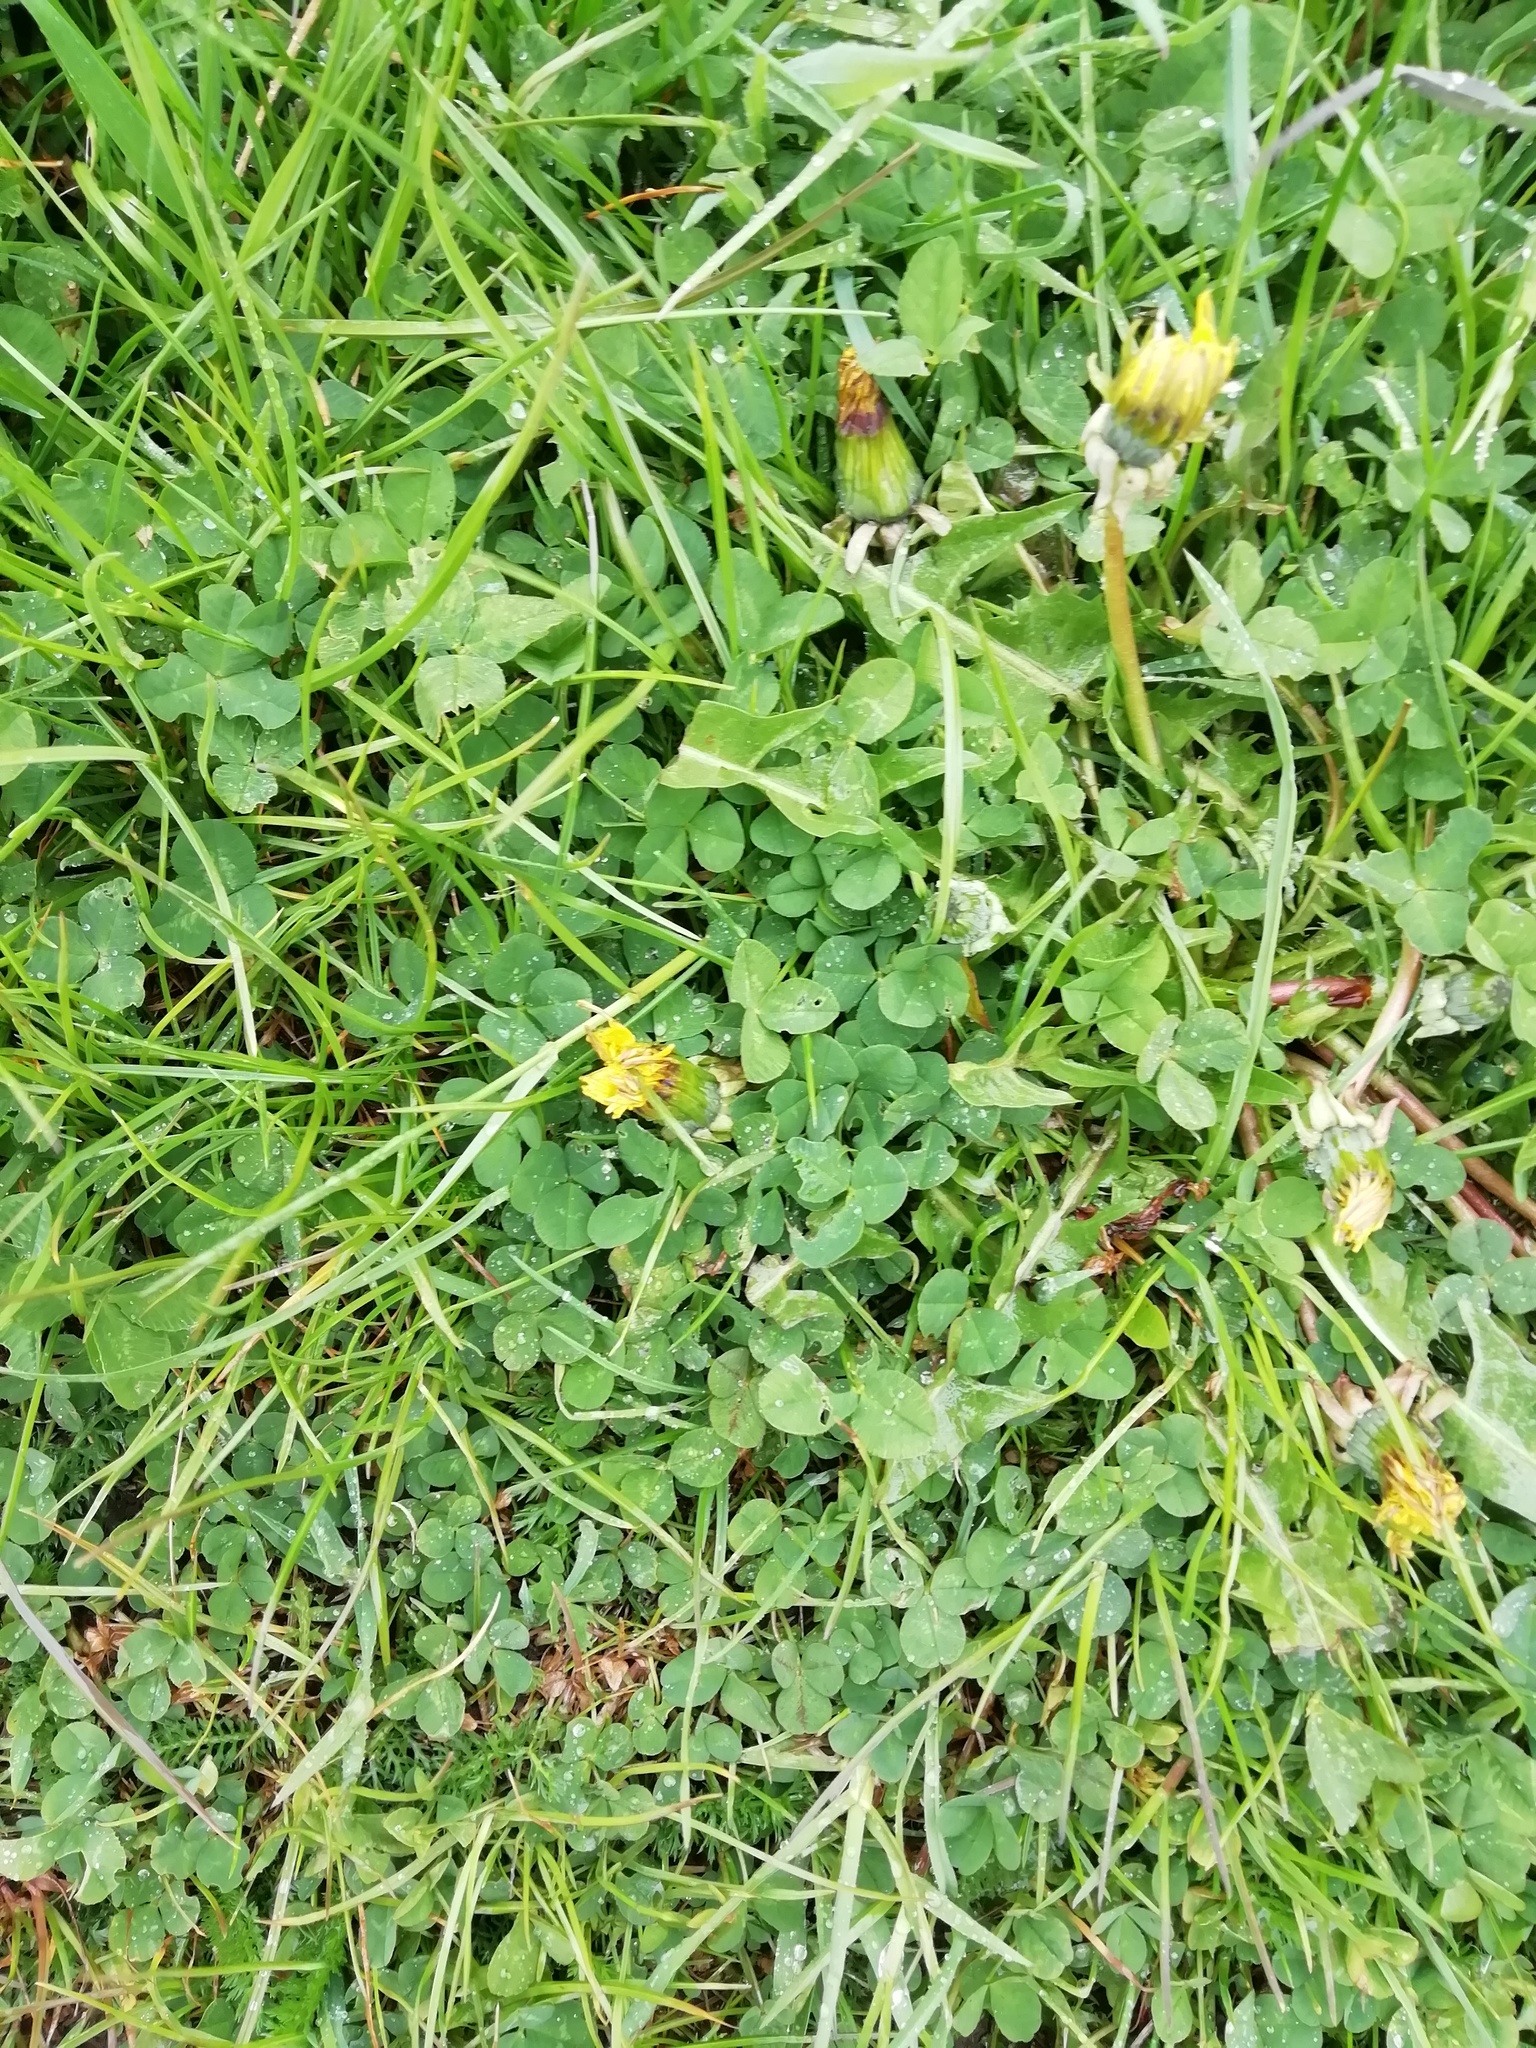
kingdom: Plantae
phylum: Tracheophyta
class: Magnoliopsida
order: Fabales
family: Fabaceae
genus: Trifolium
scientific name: Trifolium repens
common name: White clover
